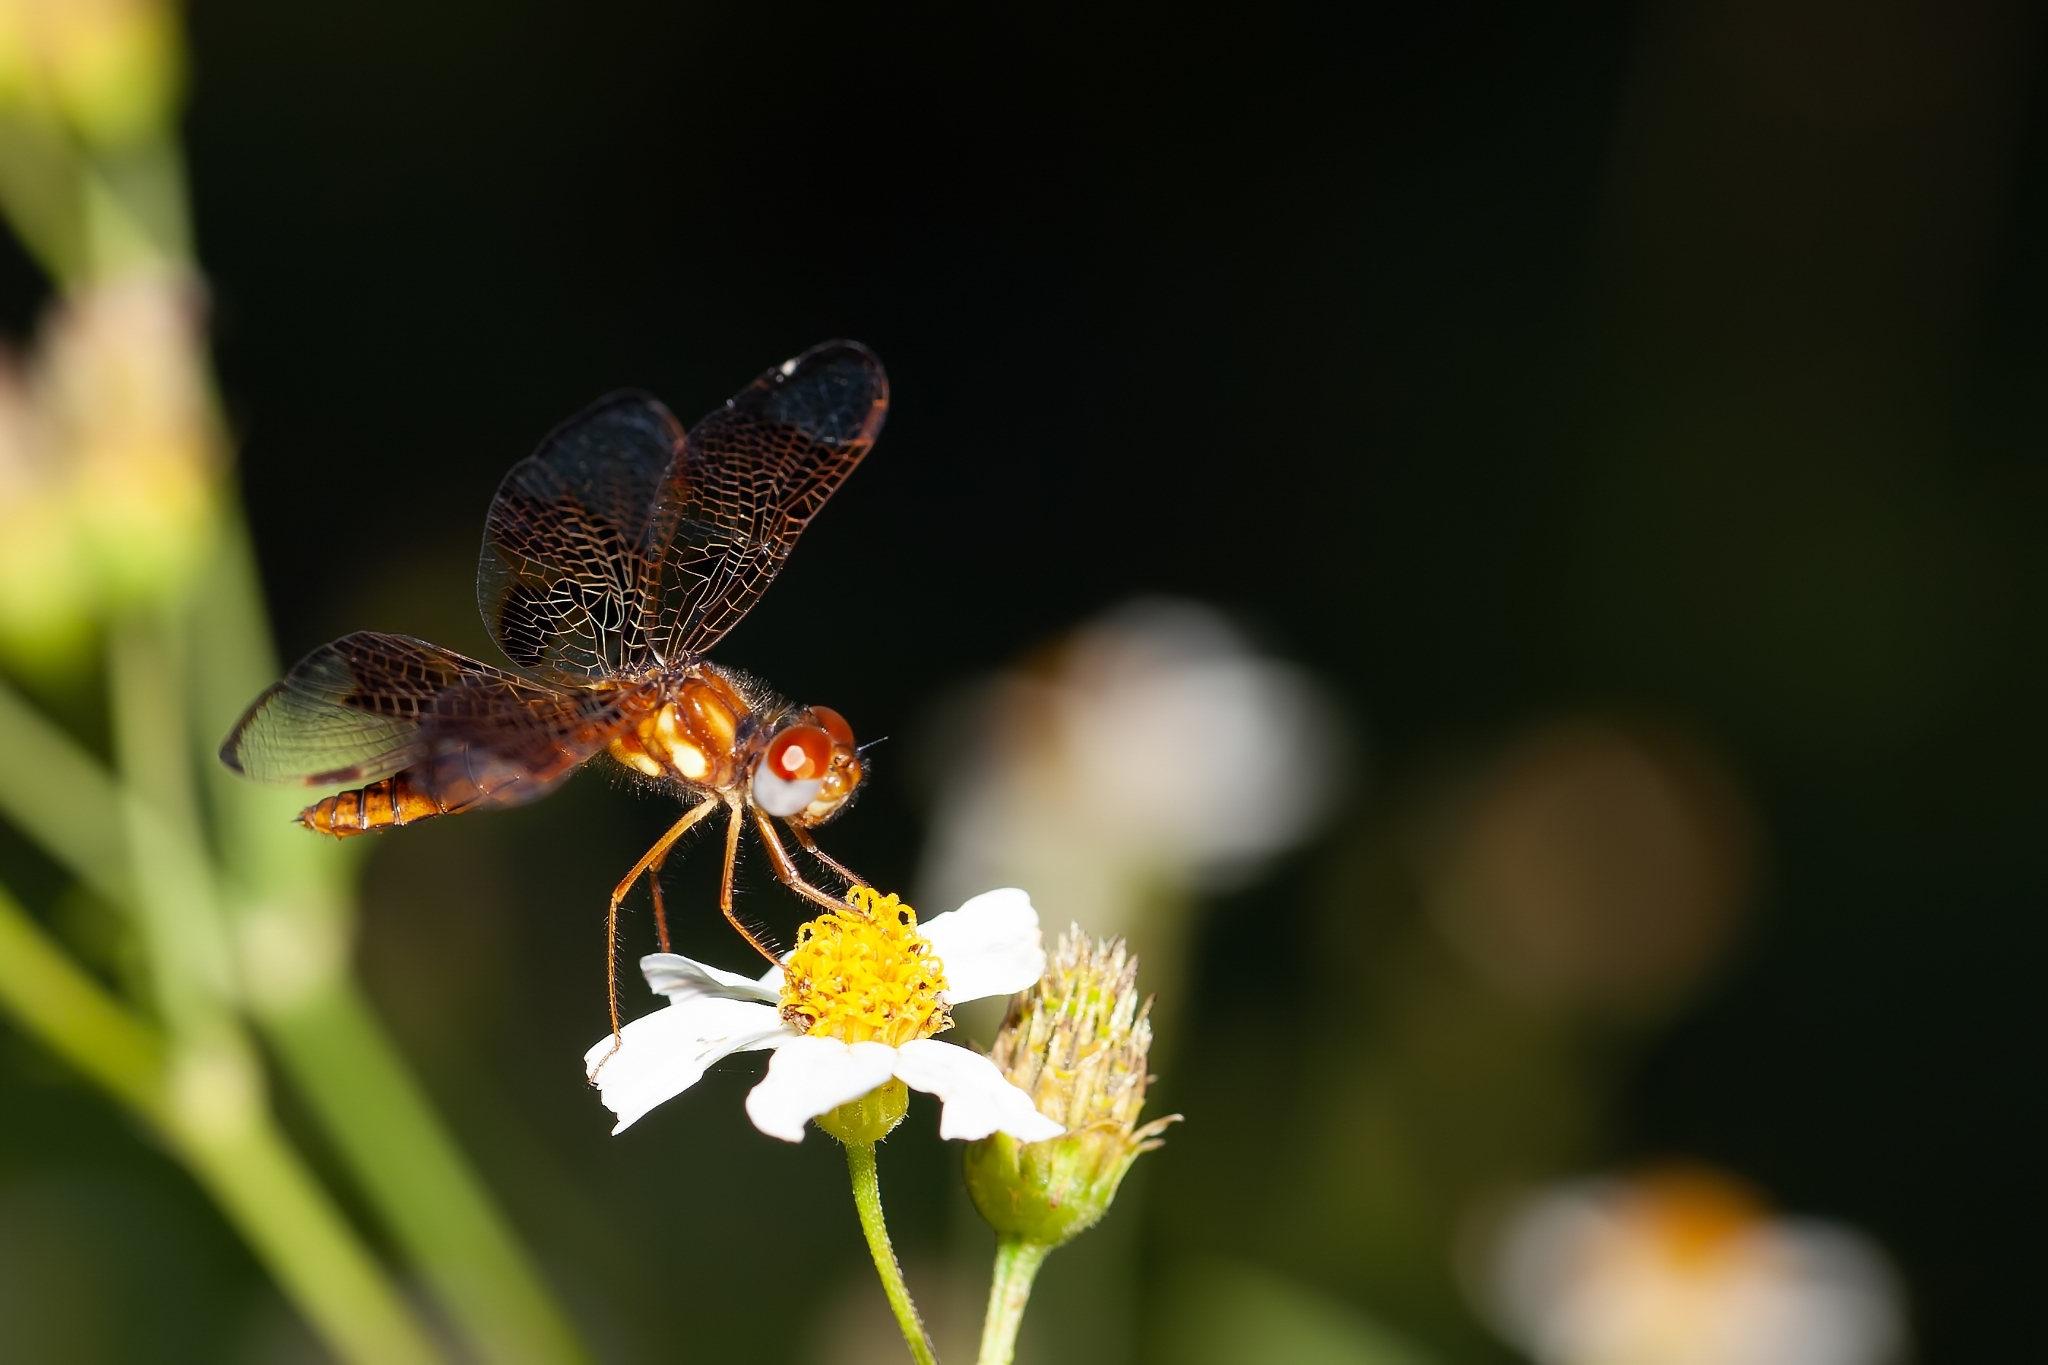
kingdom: Animalia
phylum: Arthropoda
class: Insecta
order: Odonata
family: Libellulidae
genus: Perithemis
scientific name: Perithemis tenera
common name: Eastern amberwing
